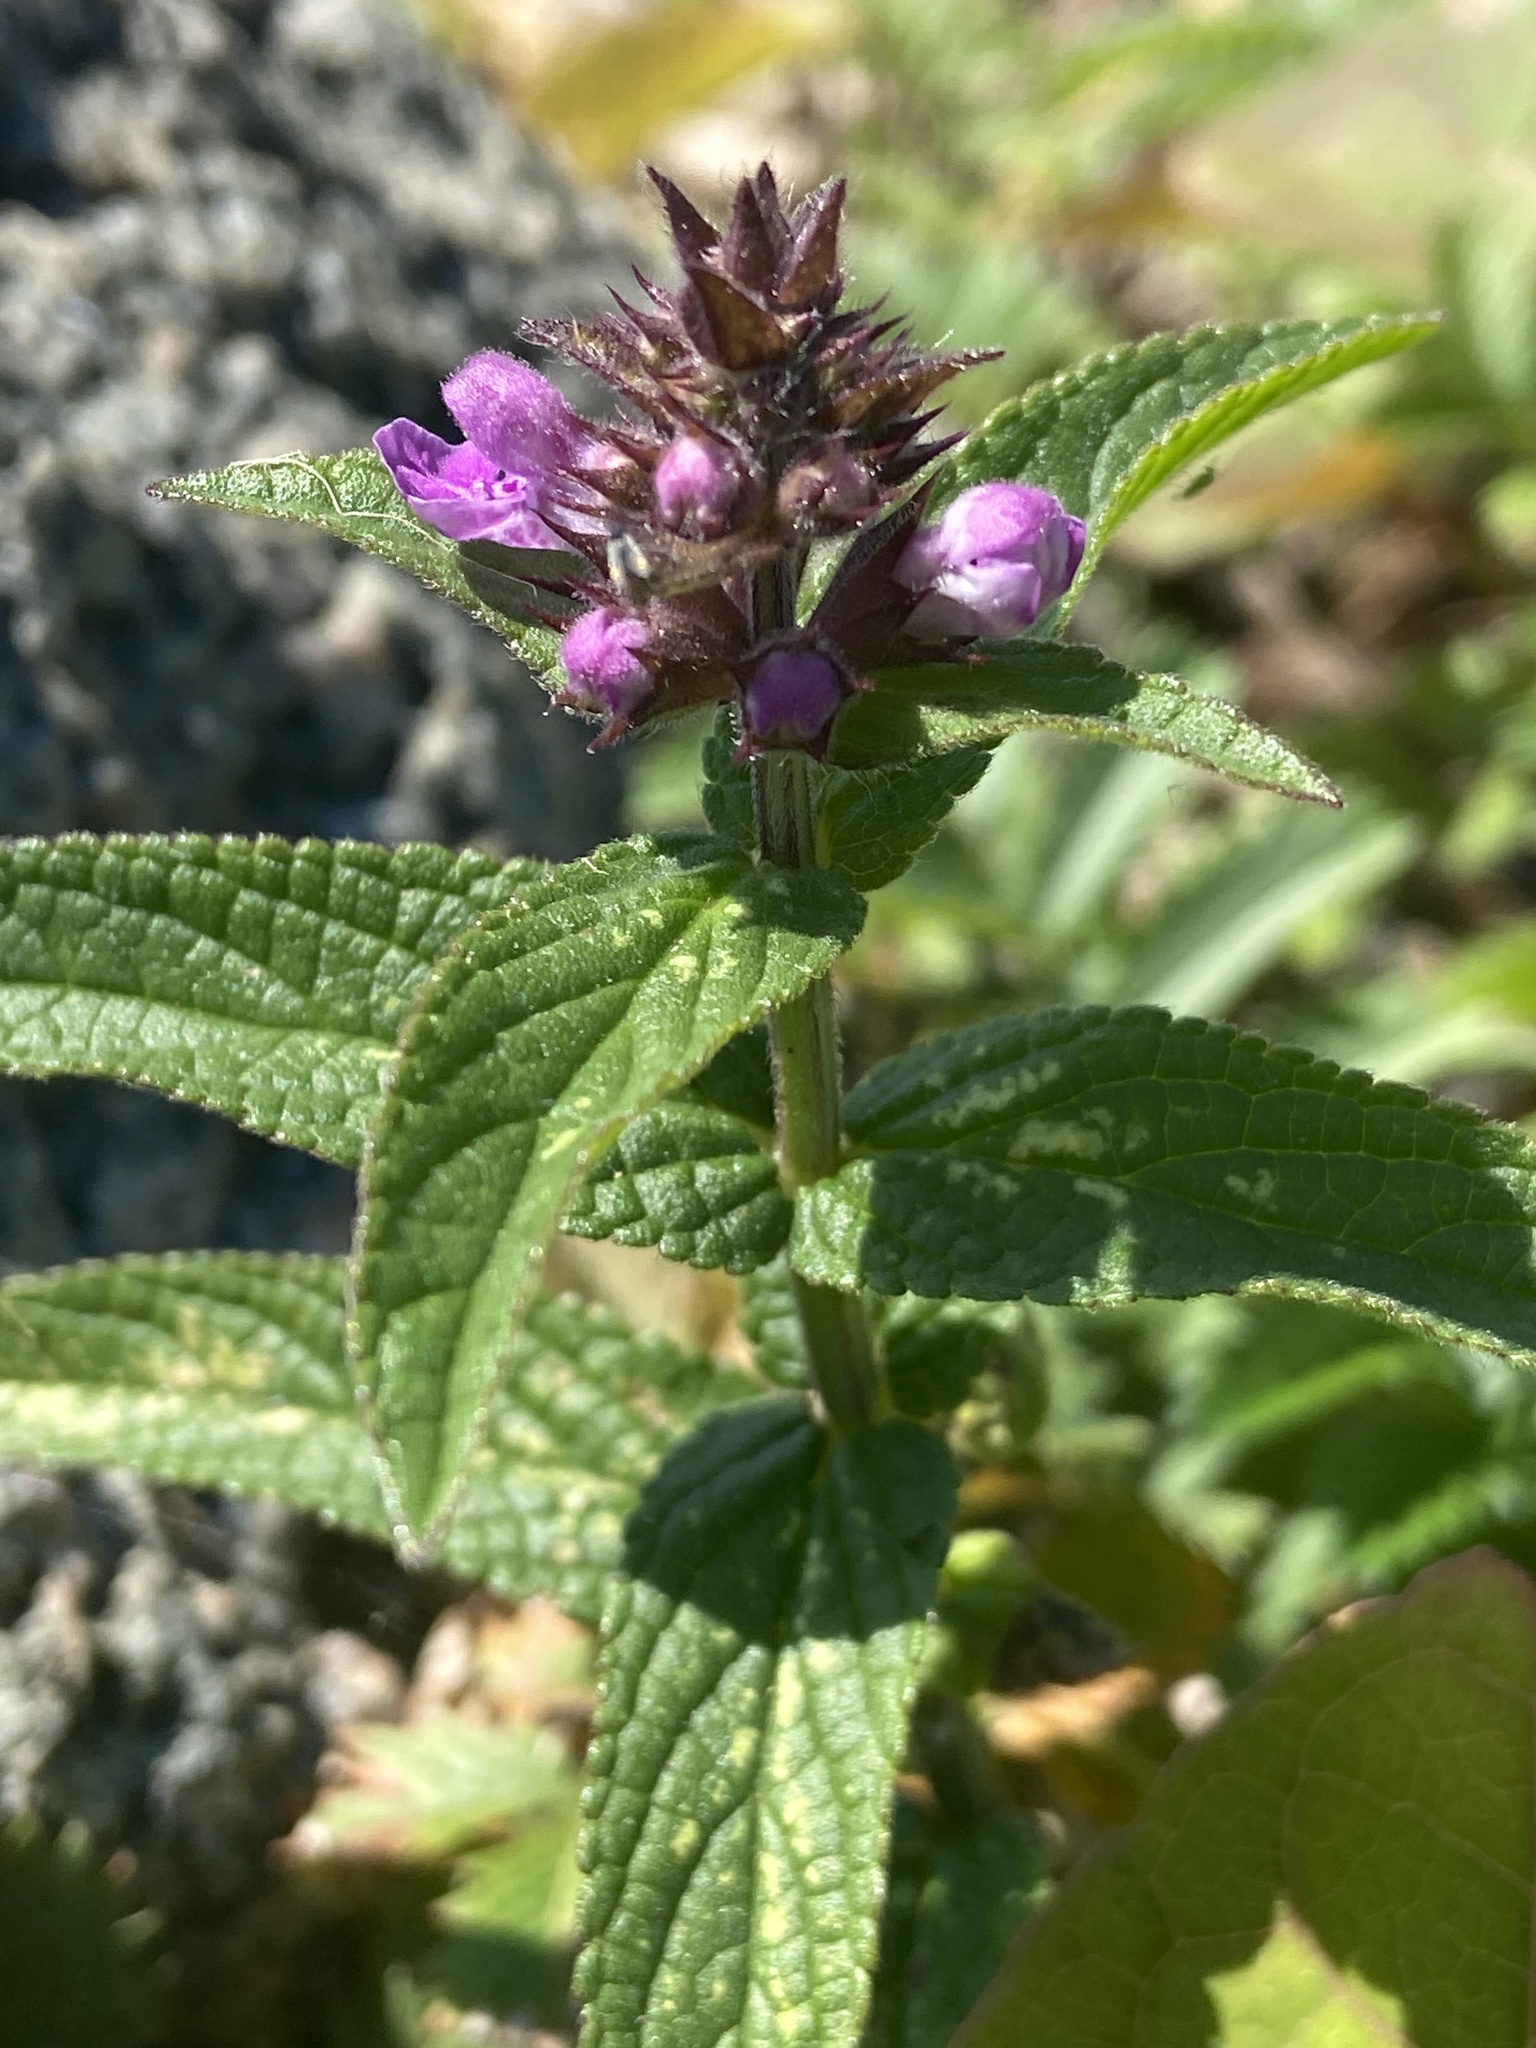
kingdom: Plantae
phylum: Tracheophyta
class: Magnoliopsida
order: Lamiales
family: Lamiaceae
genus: Stachys
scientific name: Stachys palustris
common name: Marsh woundwort
